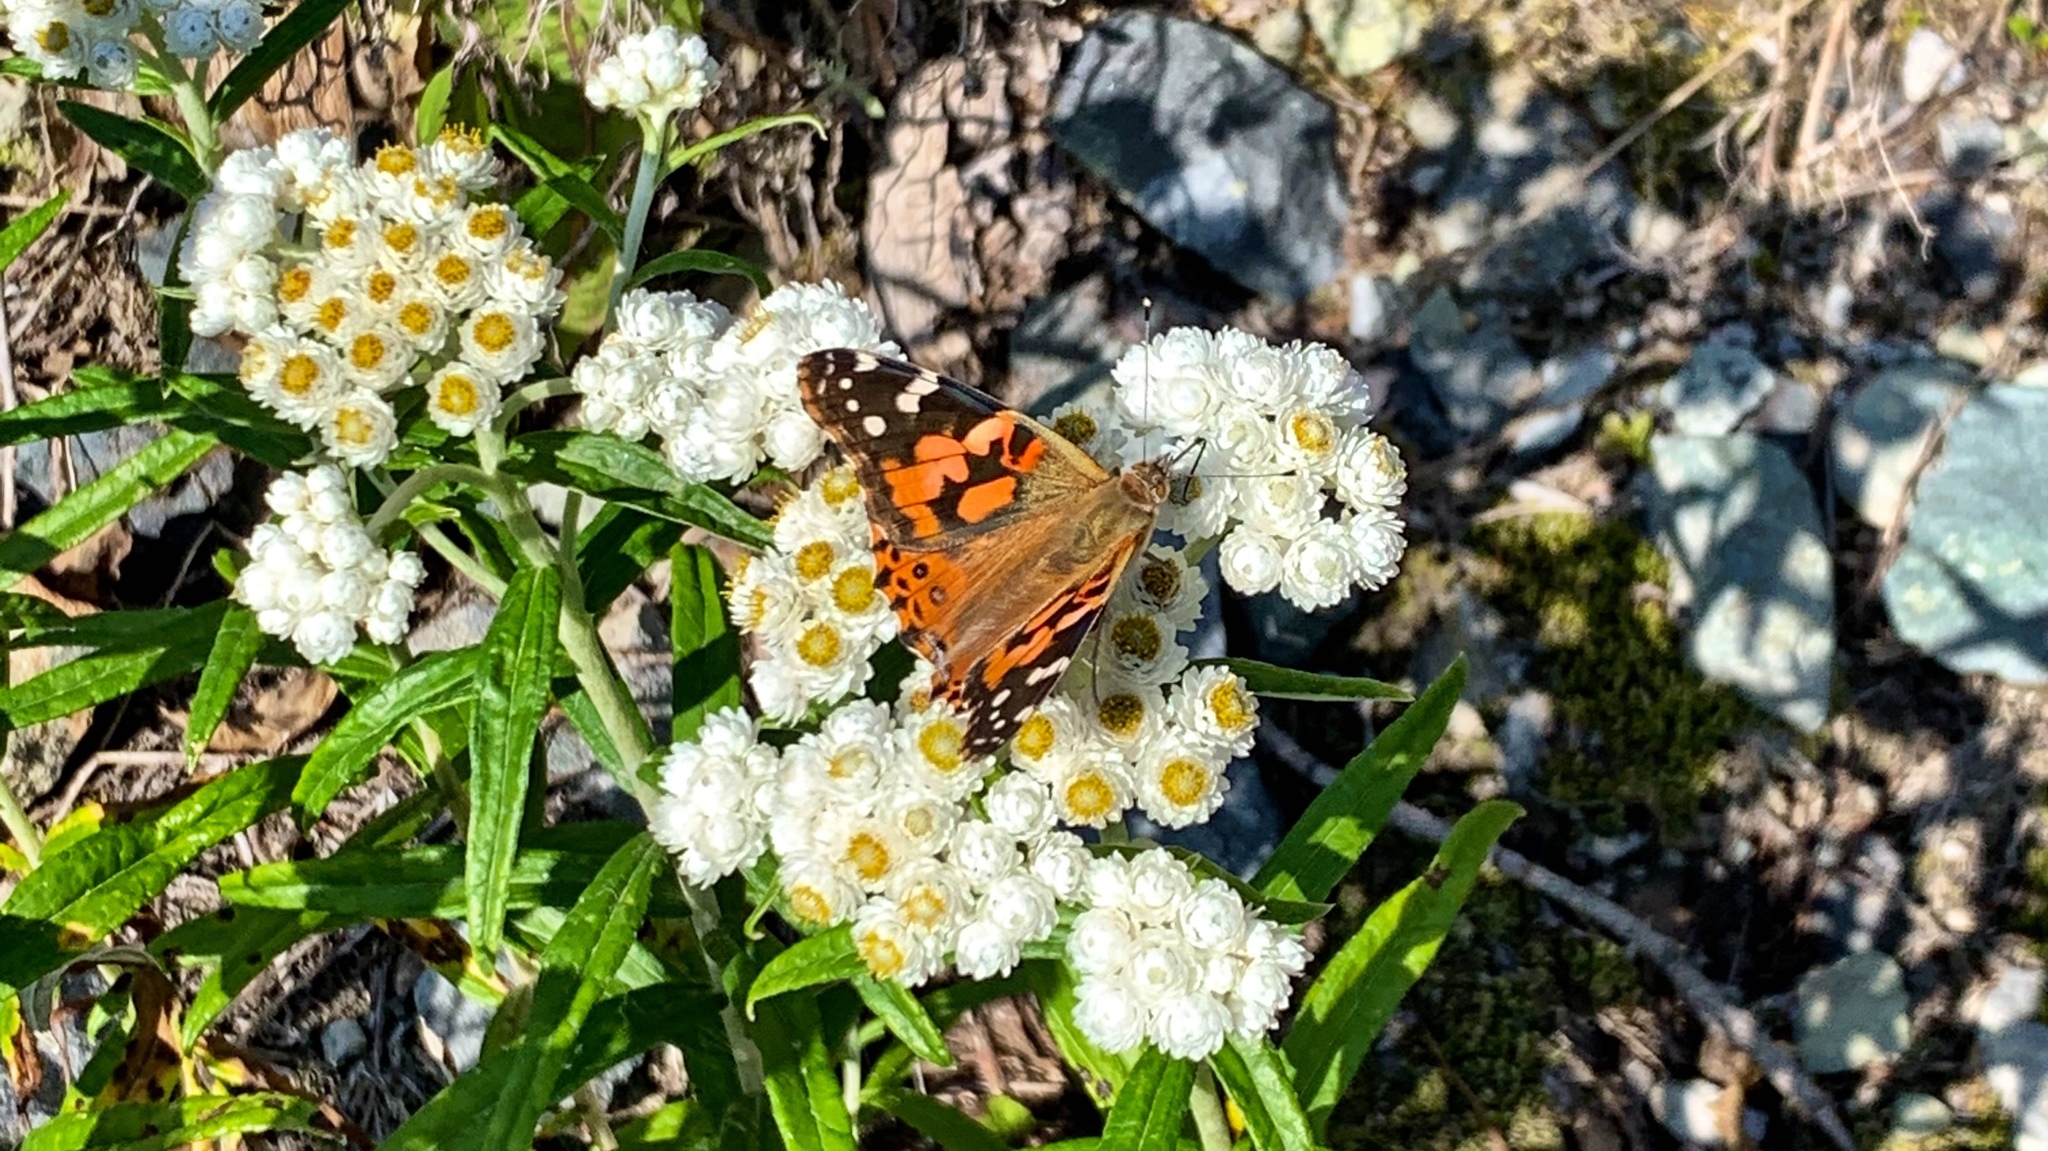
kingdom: Animalia
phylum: Arthropoda
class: Insecta
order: Lepidoptera
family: Nymphalidae
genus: Vanessa
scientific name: Vanessa cardui
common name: Painted lady
